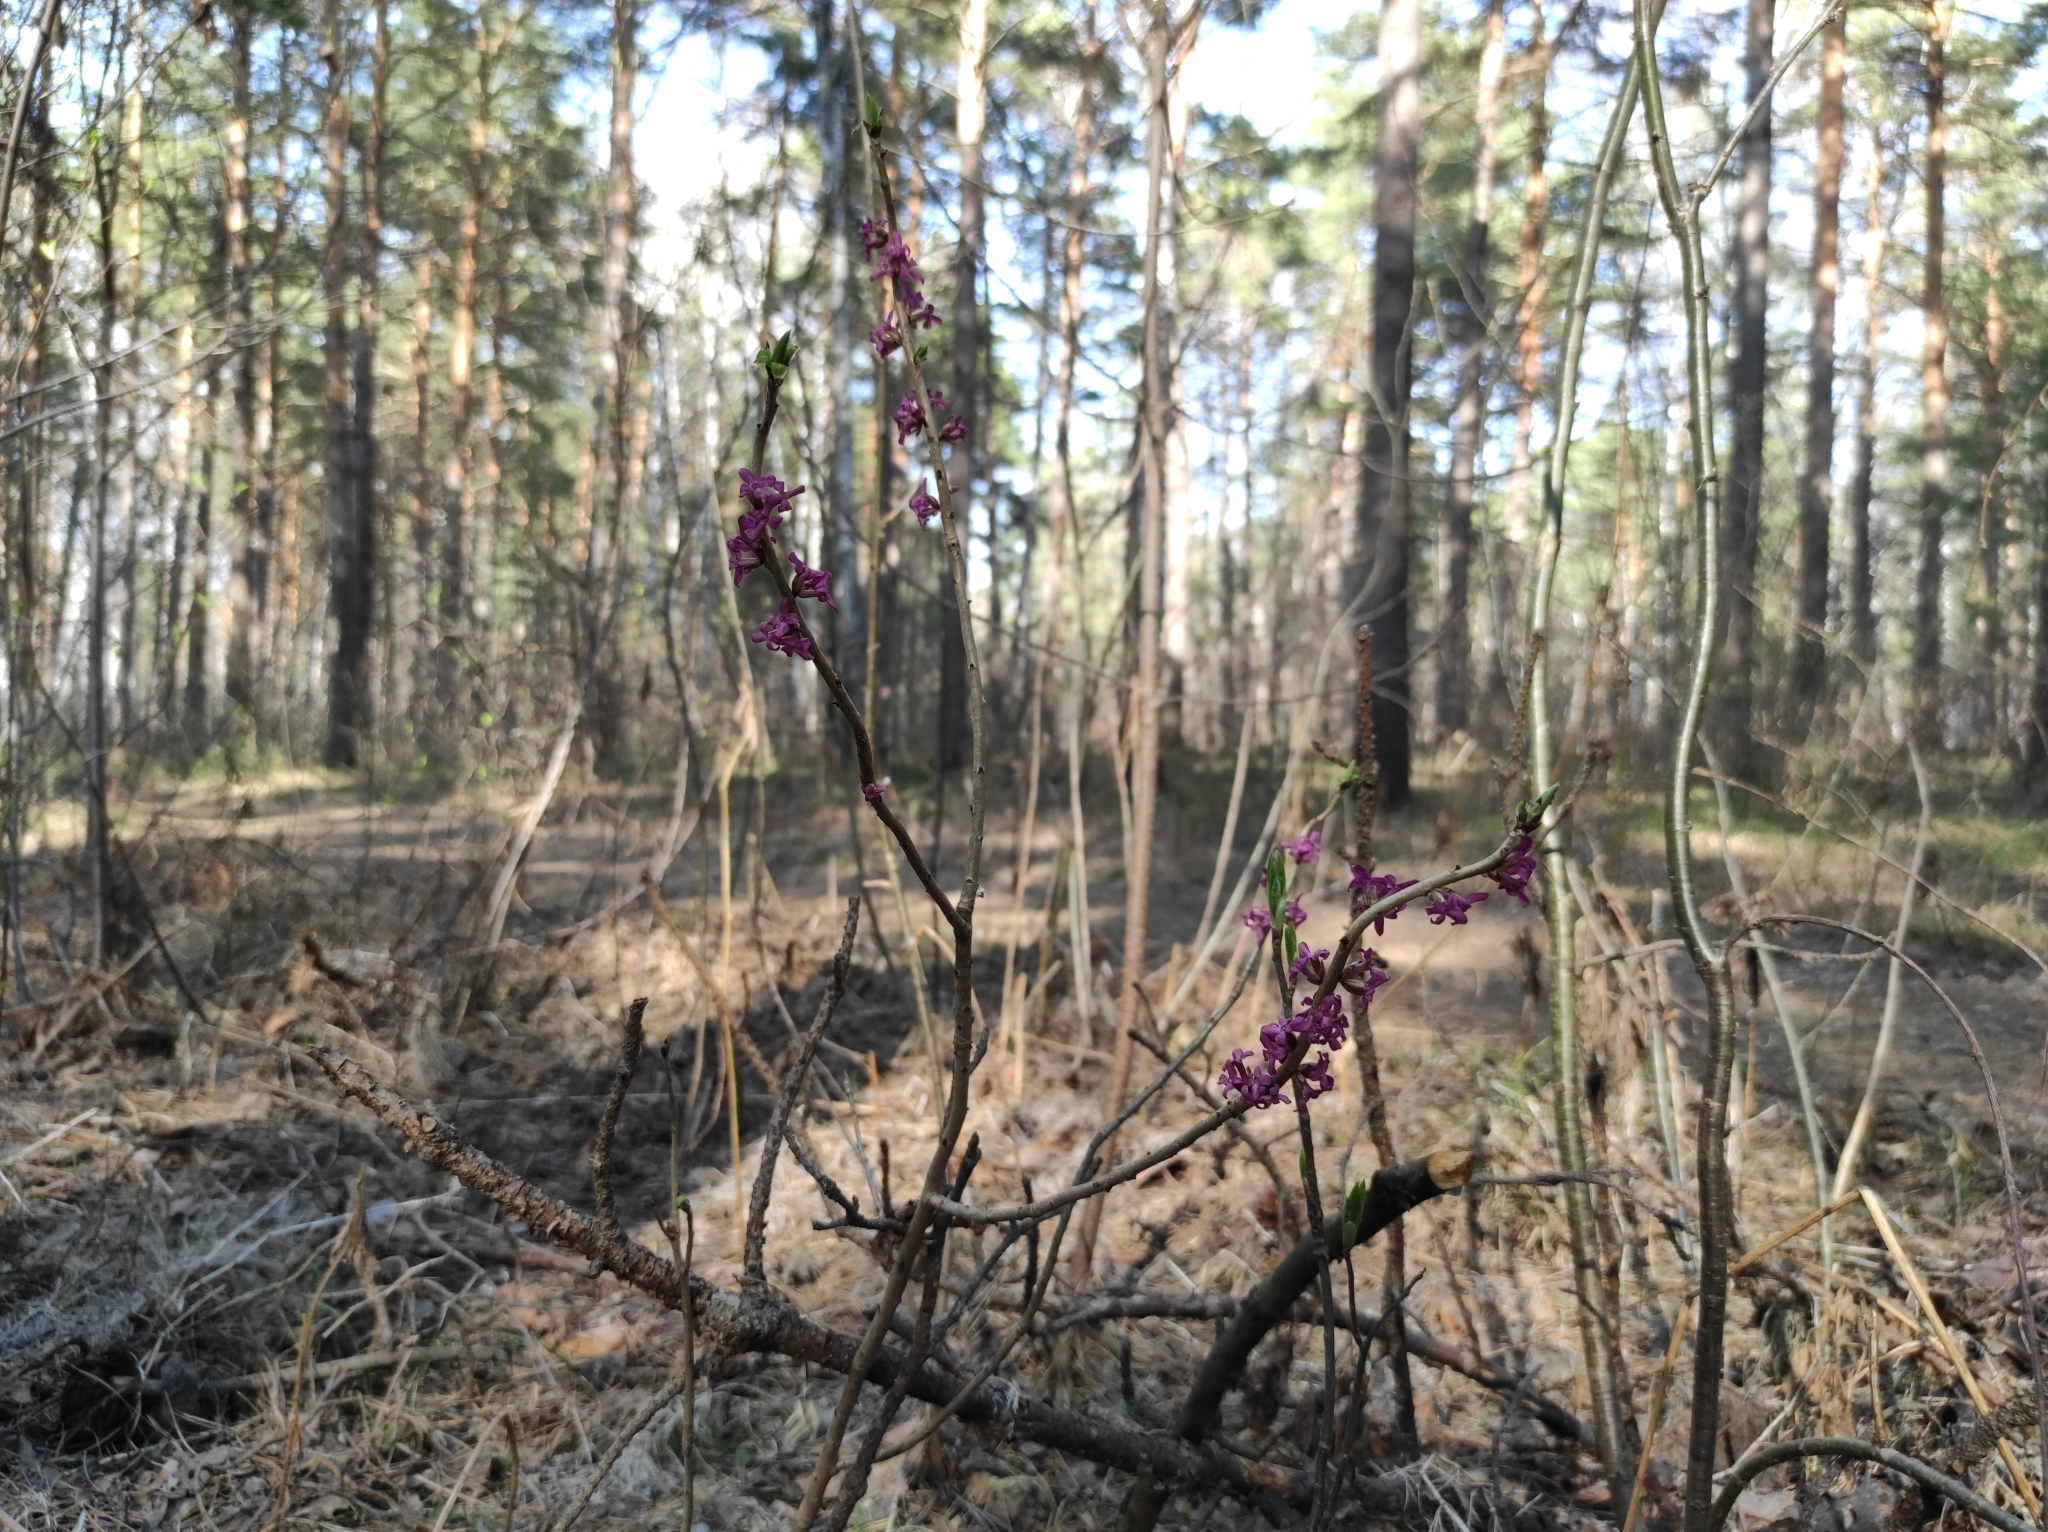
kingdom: Plantae
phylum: Tracheophyta
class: Magnoliopsida
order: Malvales
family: Thymelaeaceae
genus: Daphne
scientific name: Daphne mezereum
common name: Mezereon
